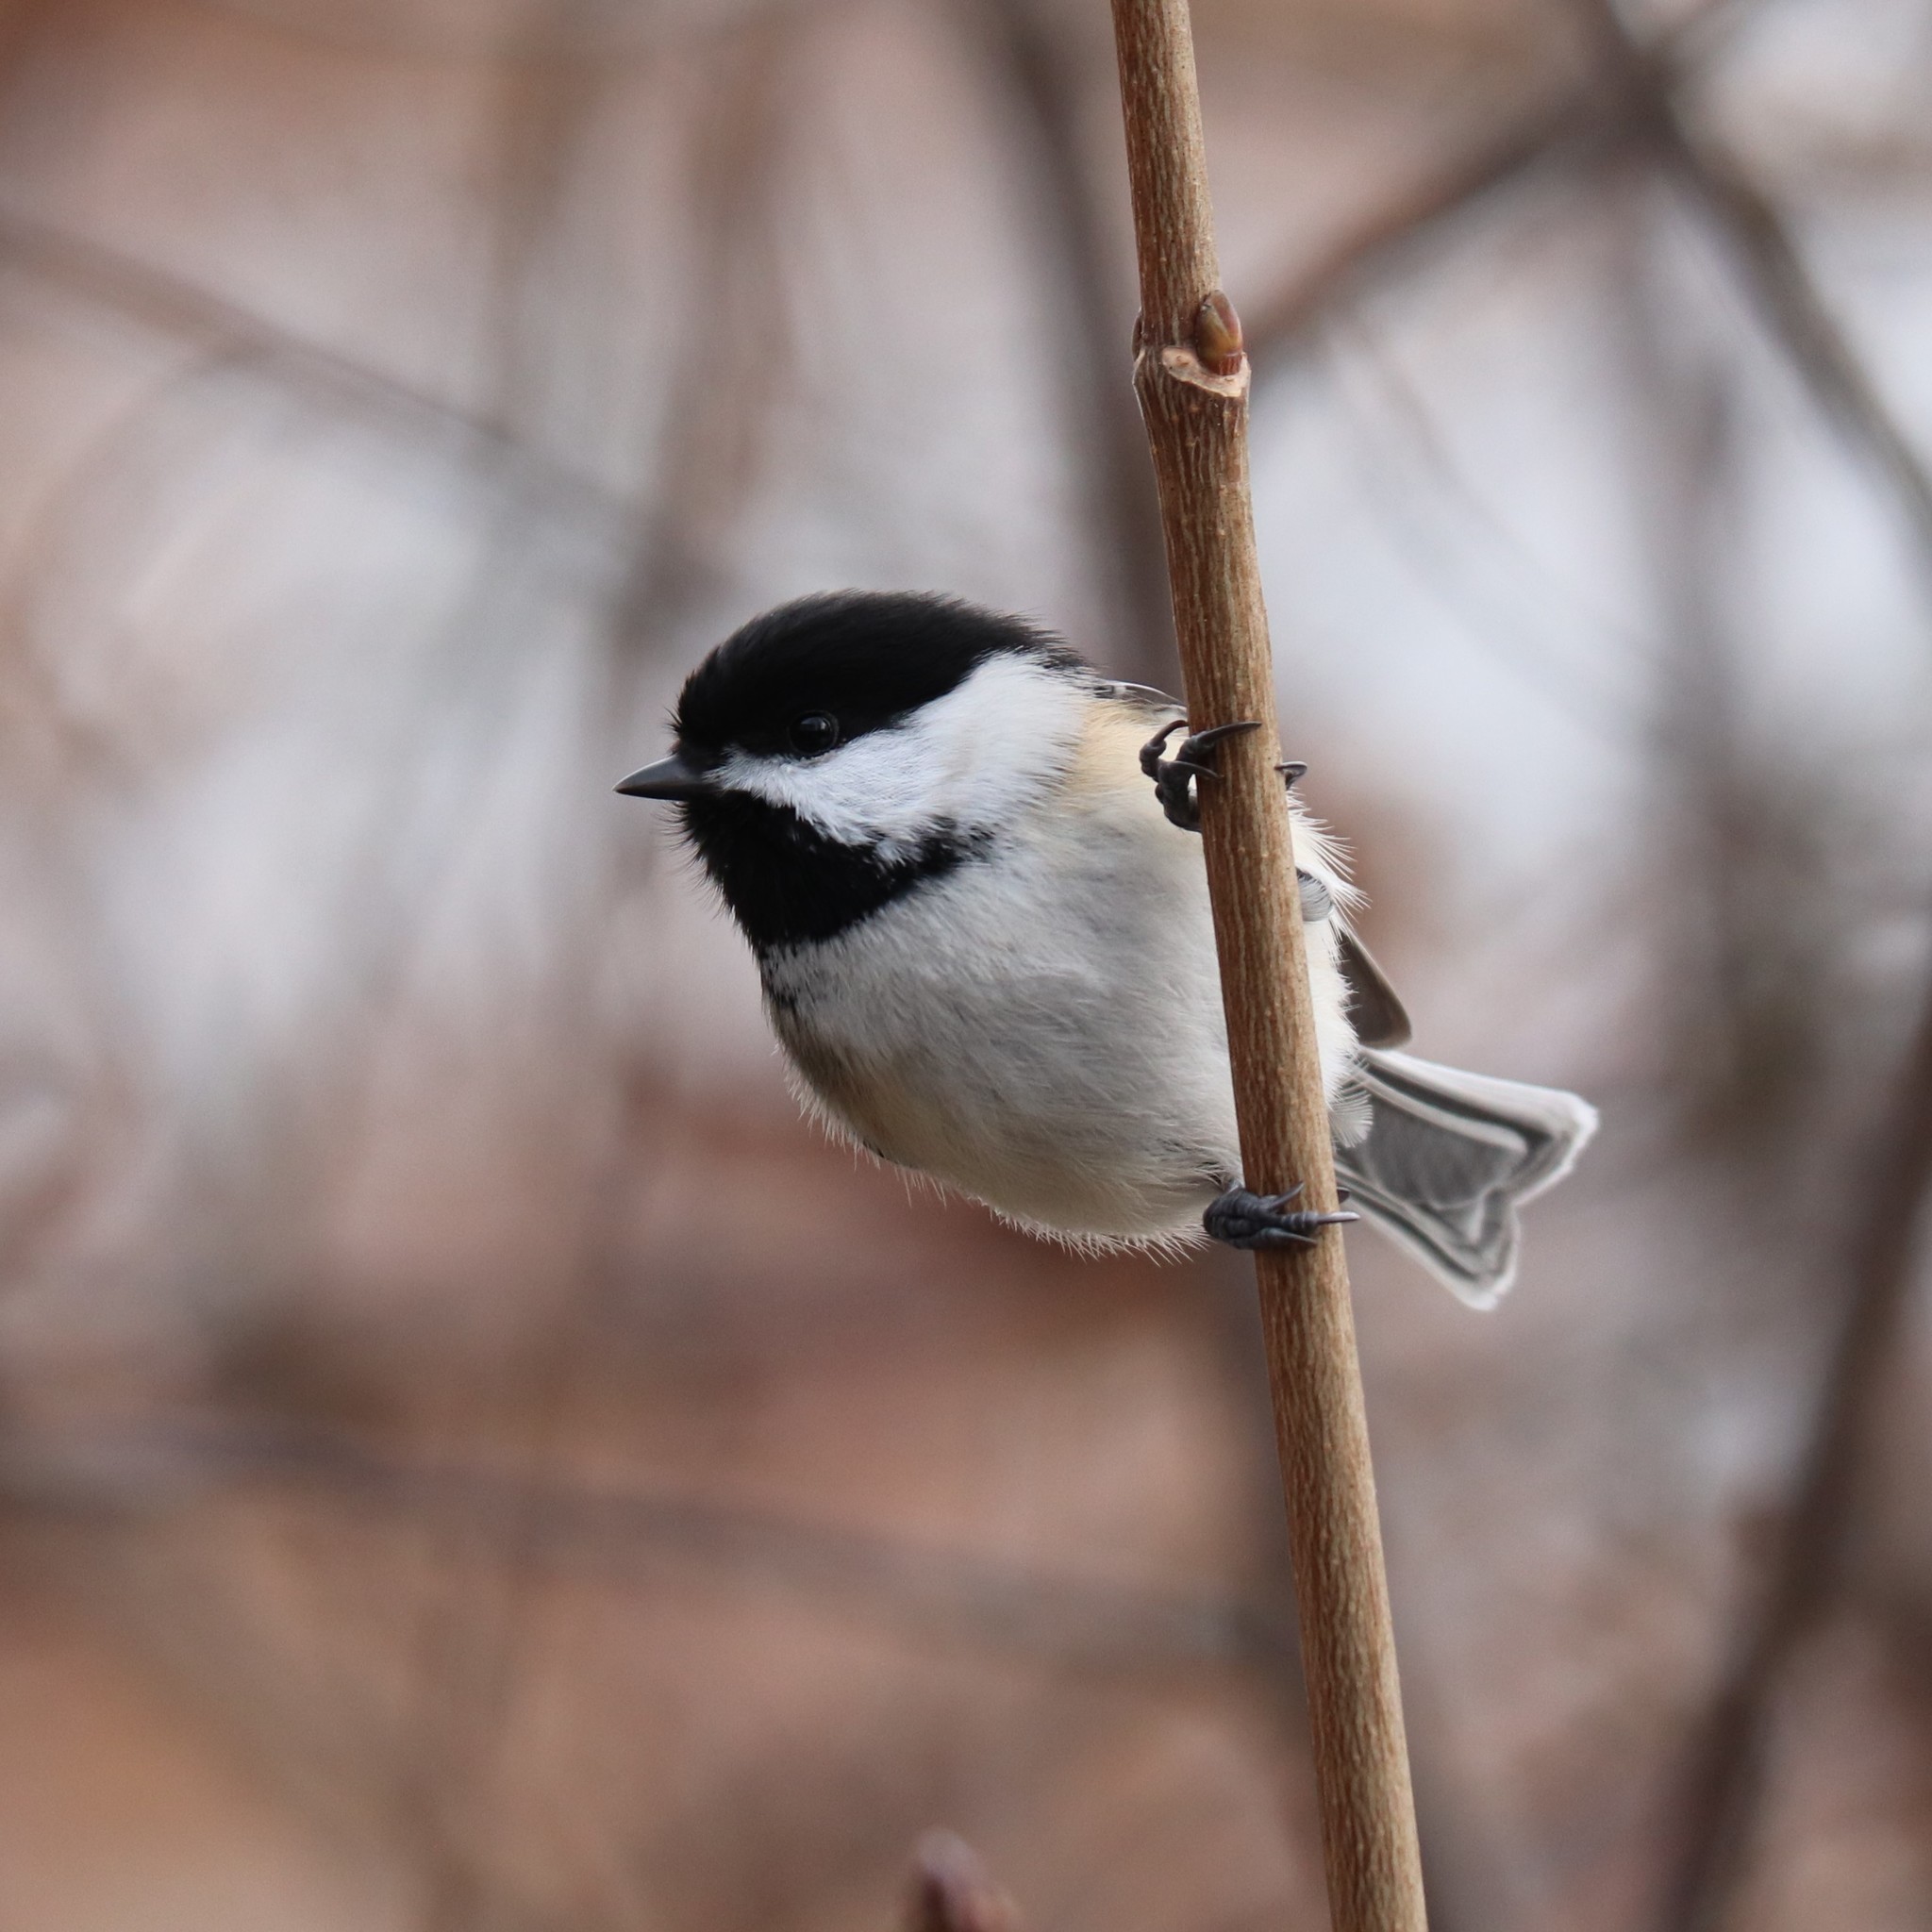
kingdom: Animalia
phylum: Chordata
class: Aves
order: Passeriformes
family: Paridae
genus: Poecile
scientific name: Poecile atricapillus
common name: Black-capped chickadee
